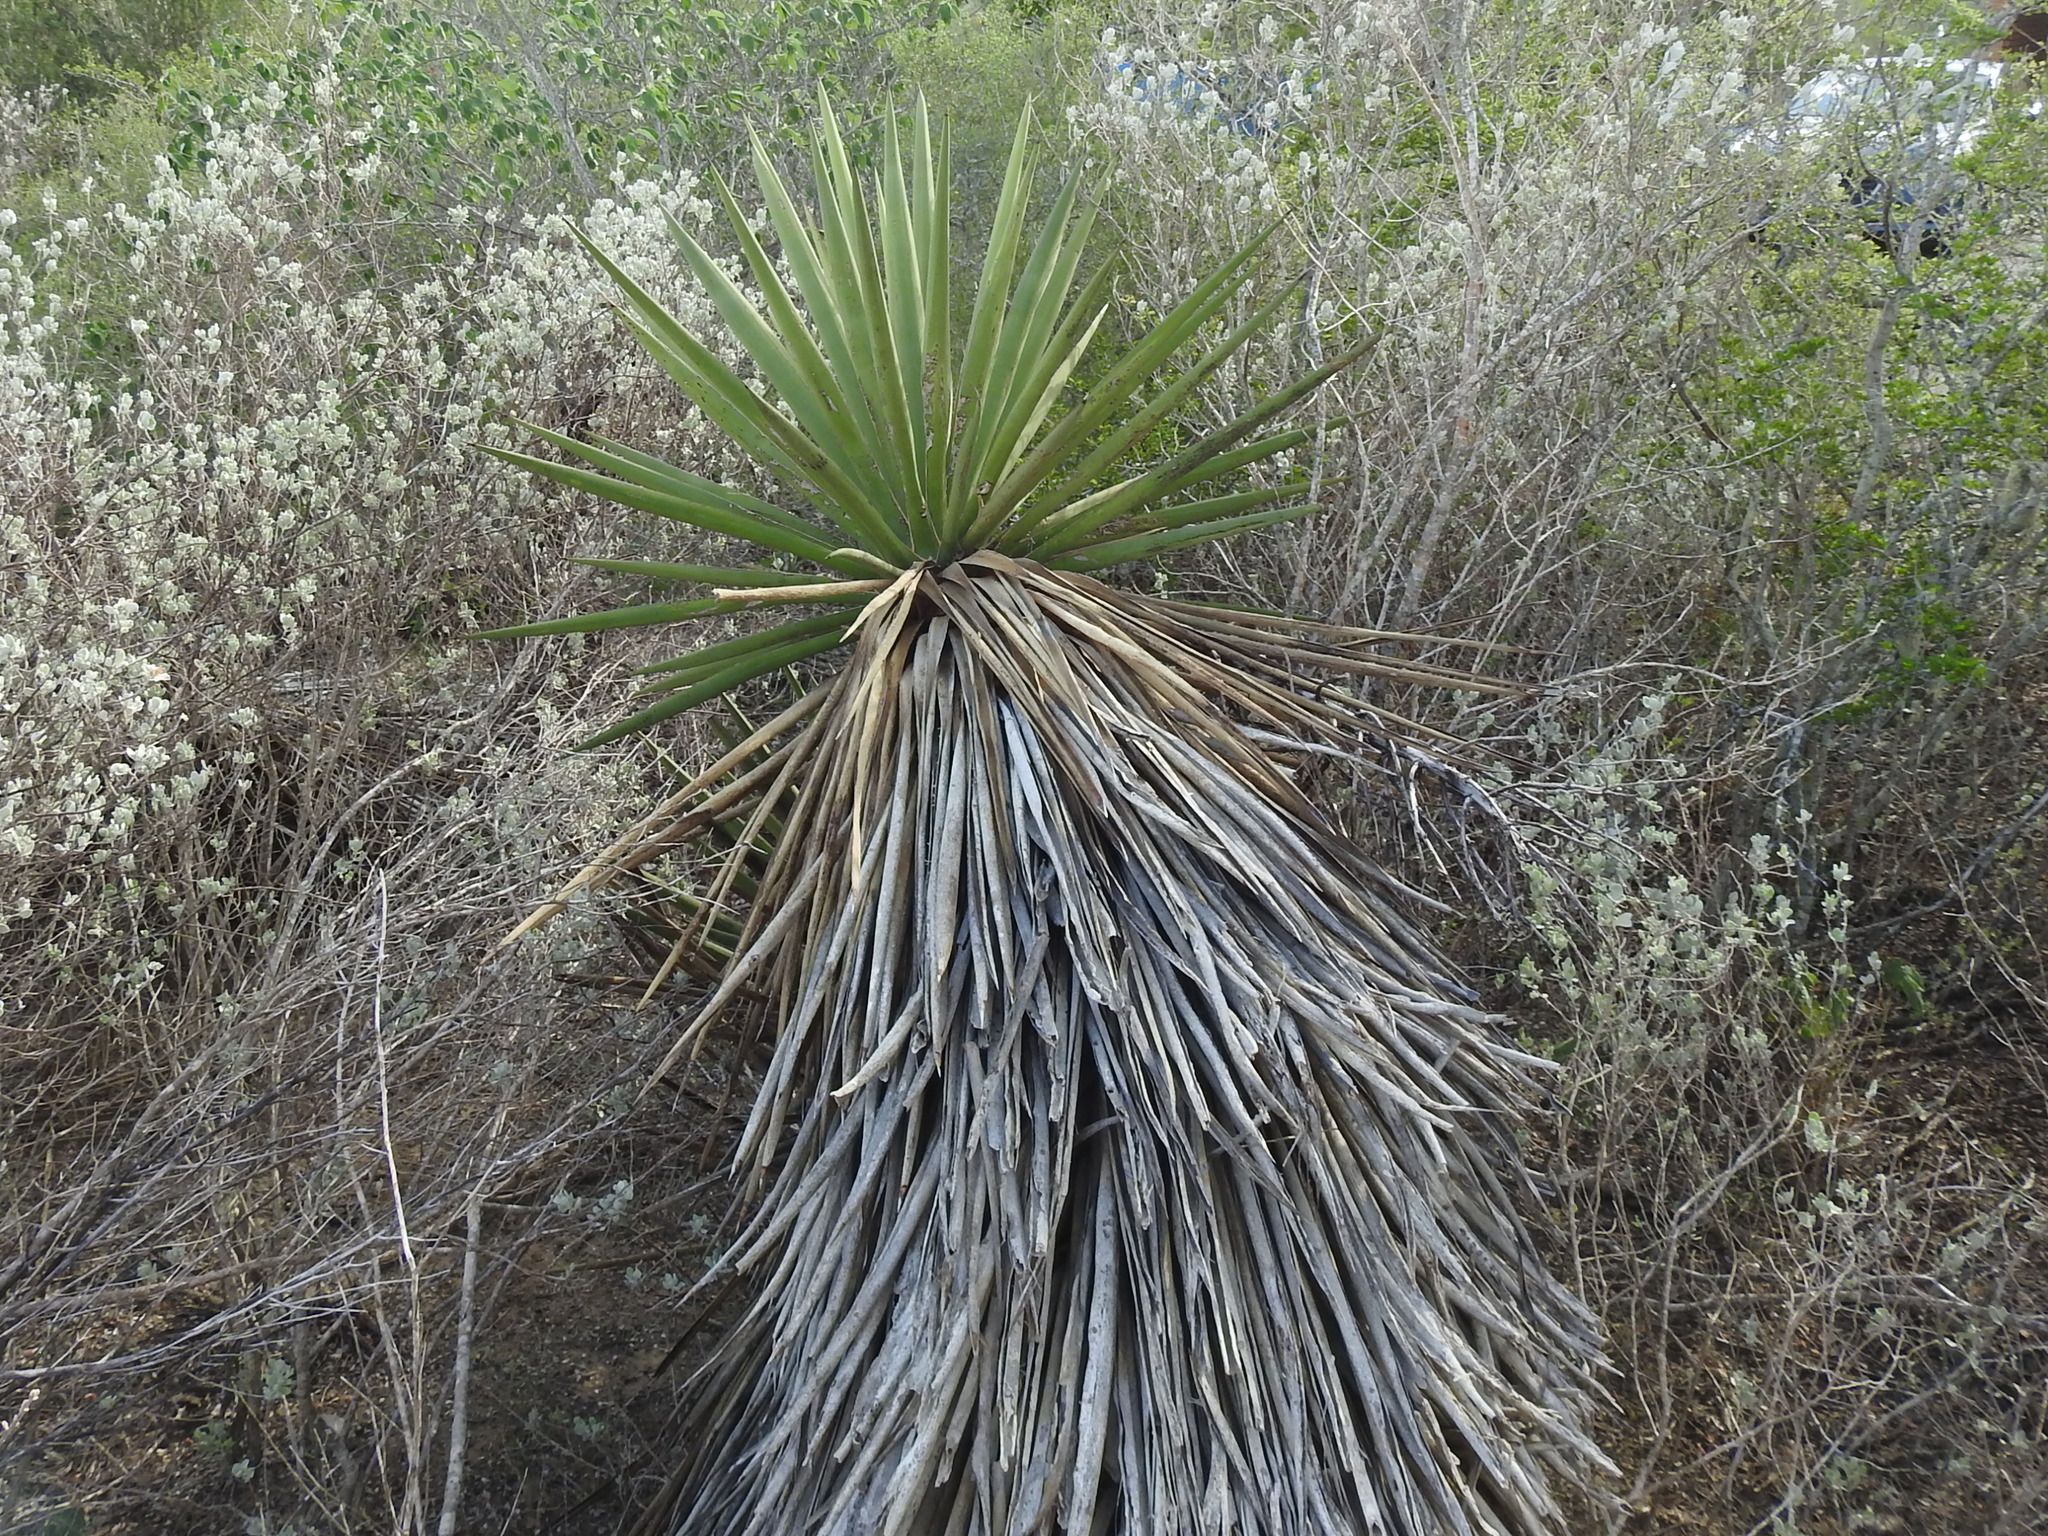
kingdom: Plantae
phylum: Tracheophyta
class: Liliopsida
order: Asparagales
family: Asparagaceae
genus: Yucca
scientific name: Yucca treculiana
